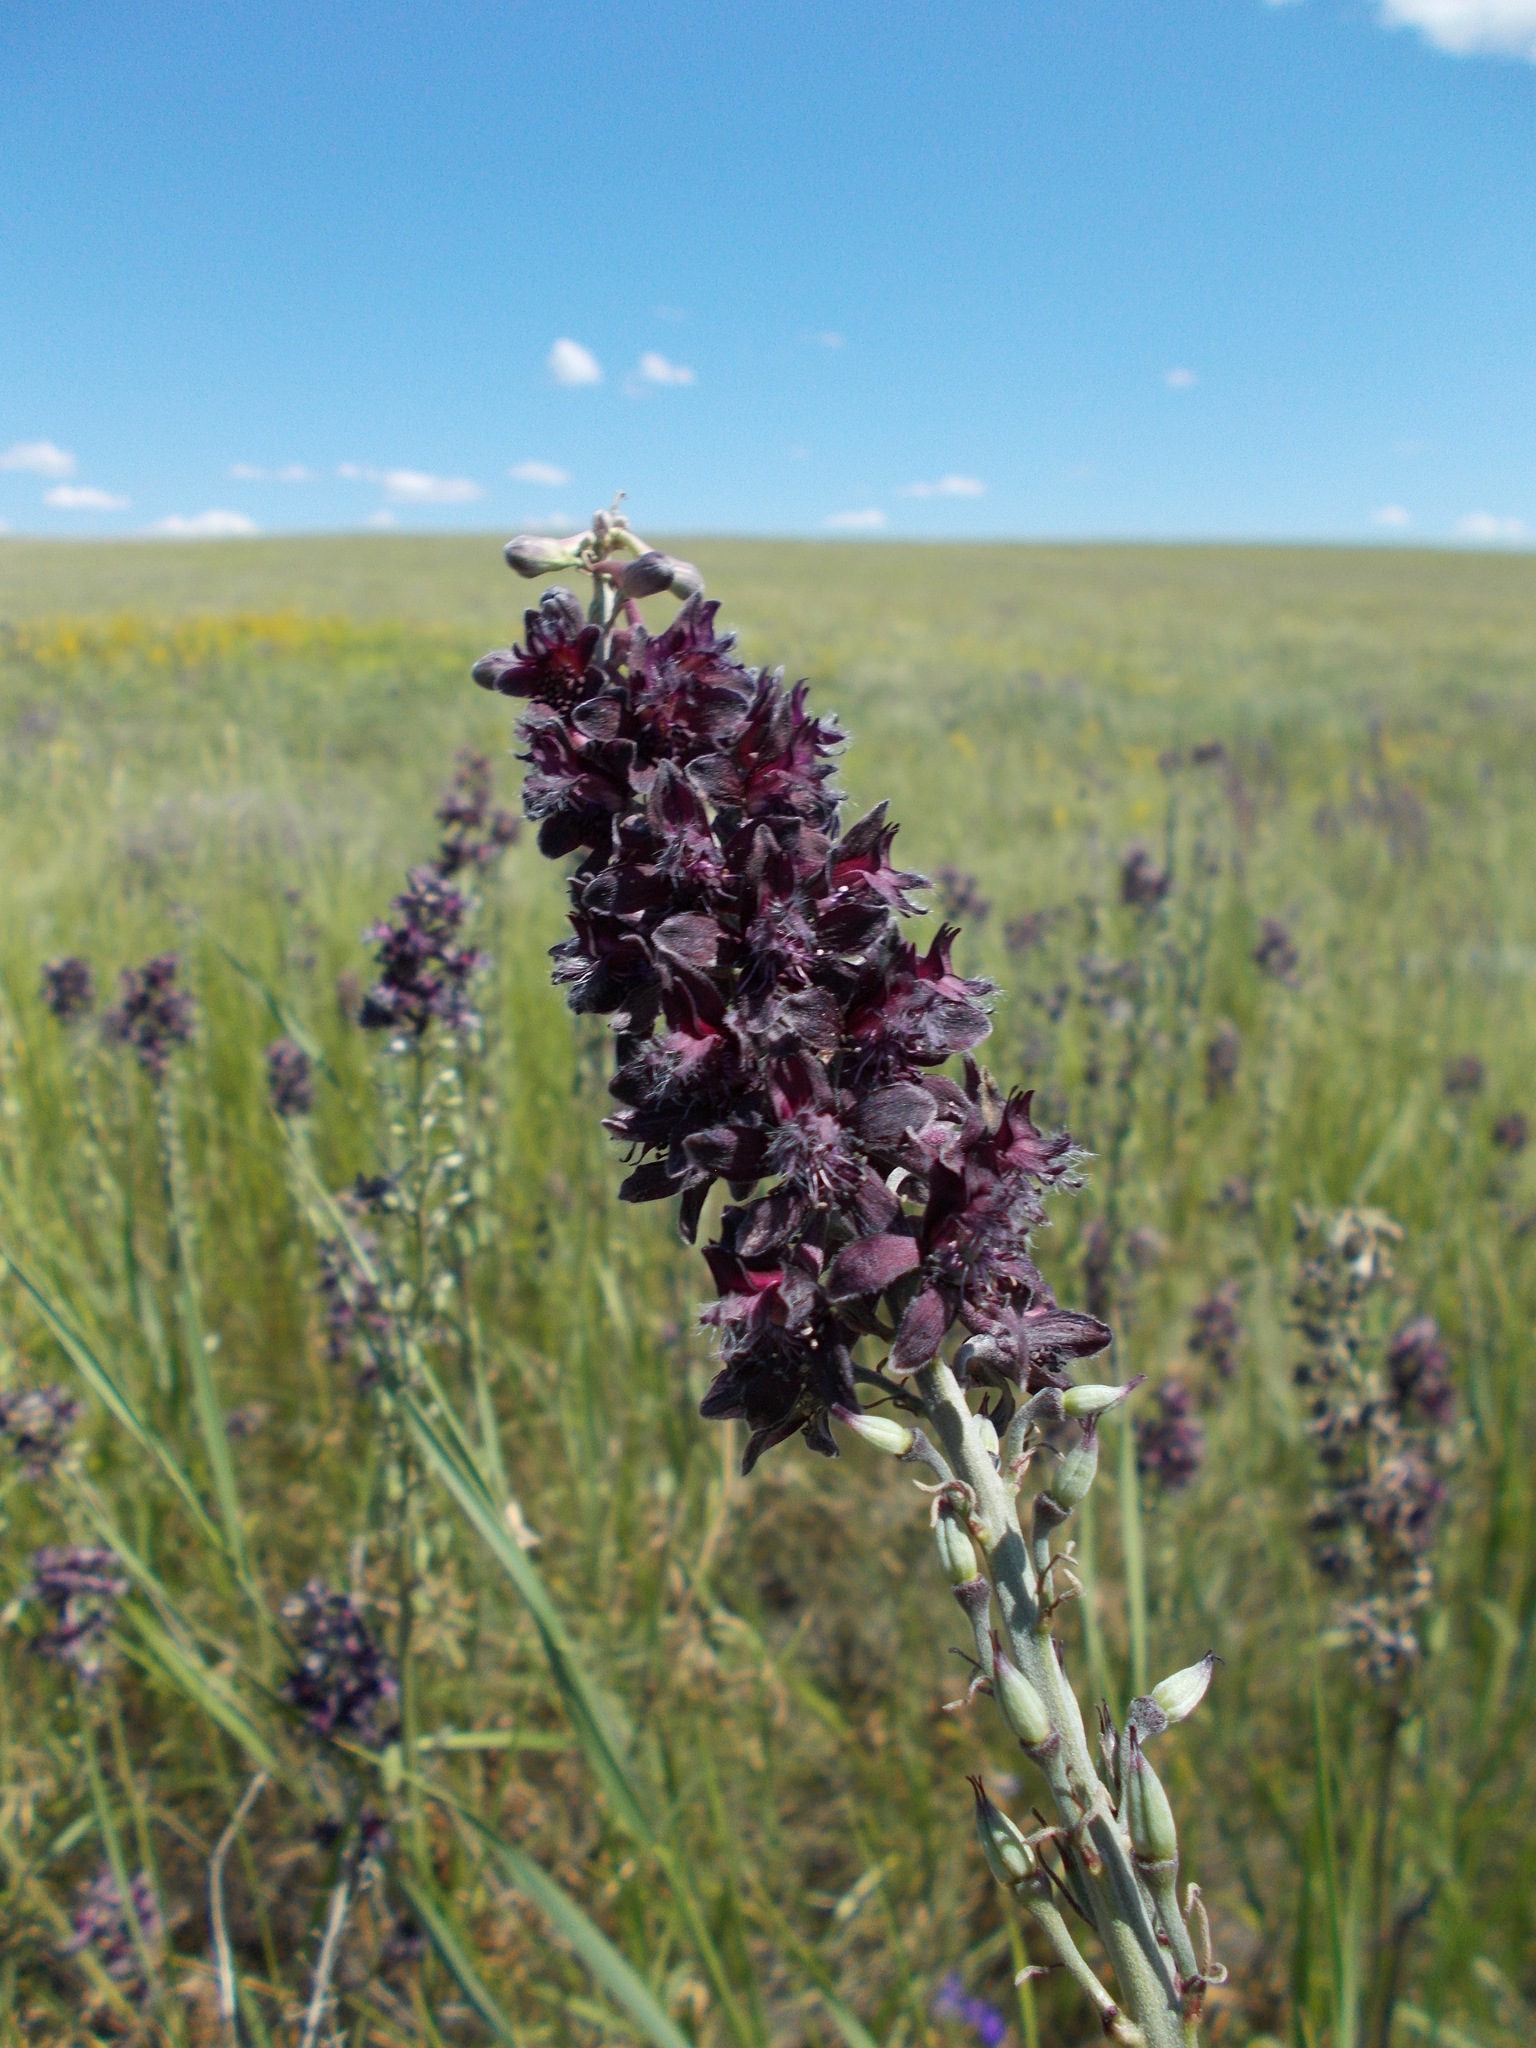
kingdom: Plantae
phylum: Tracheophyta
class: Magnoliopsida
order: Ranunculales
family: Ranunculaceae
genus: Delphinium
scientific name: Delphinium puniceum
